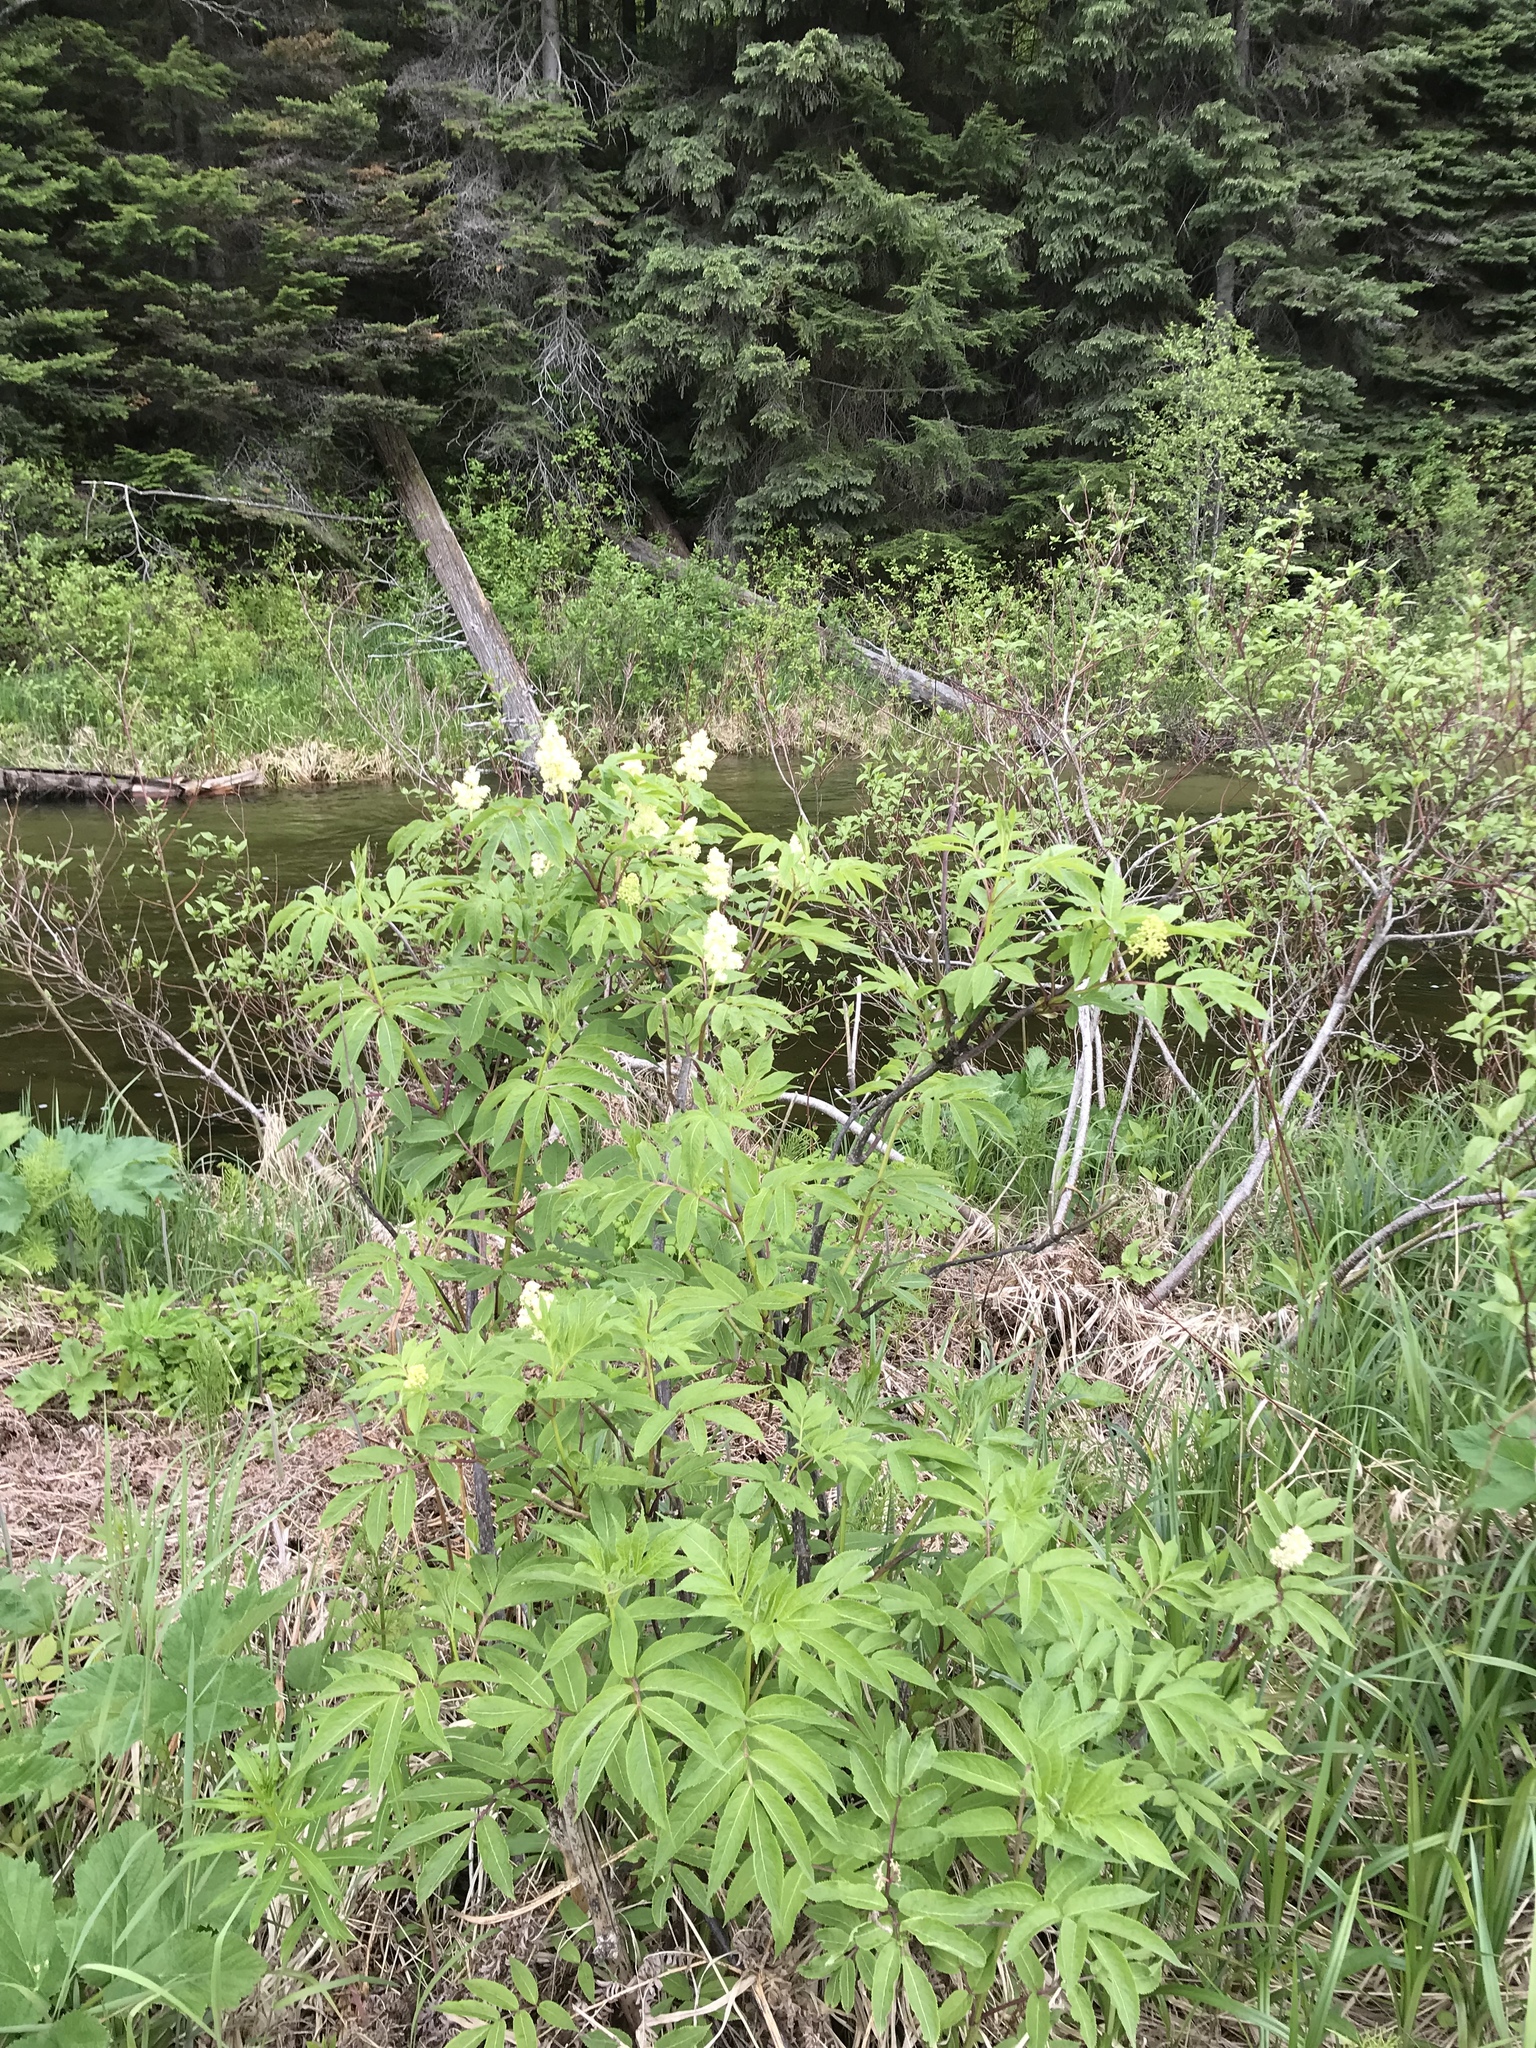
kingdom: Plantae
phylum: Tracheophyta
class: Magnoliopsida
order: Dipsacales
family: Viburnaceae
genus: Sambucus
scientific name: Sambucus racemosa
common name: Red-berried elder
